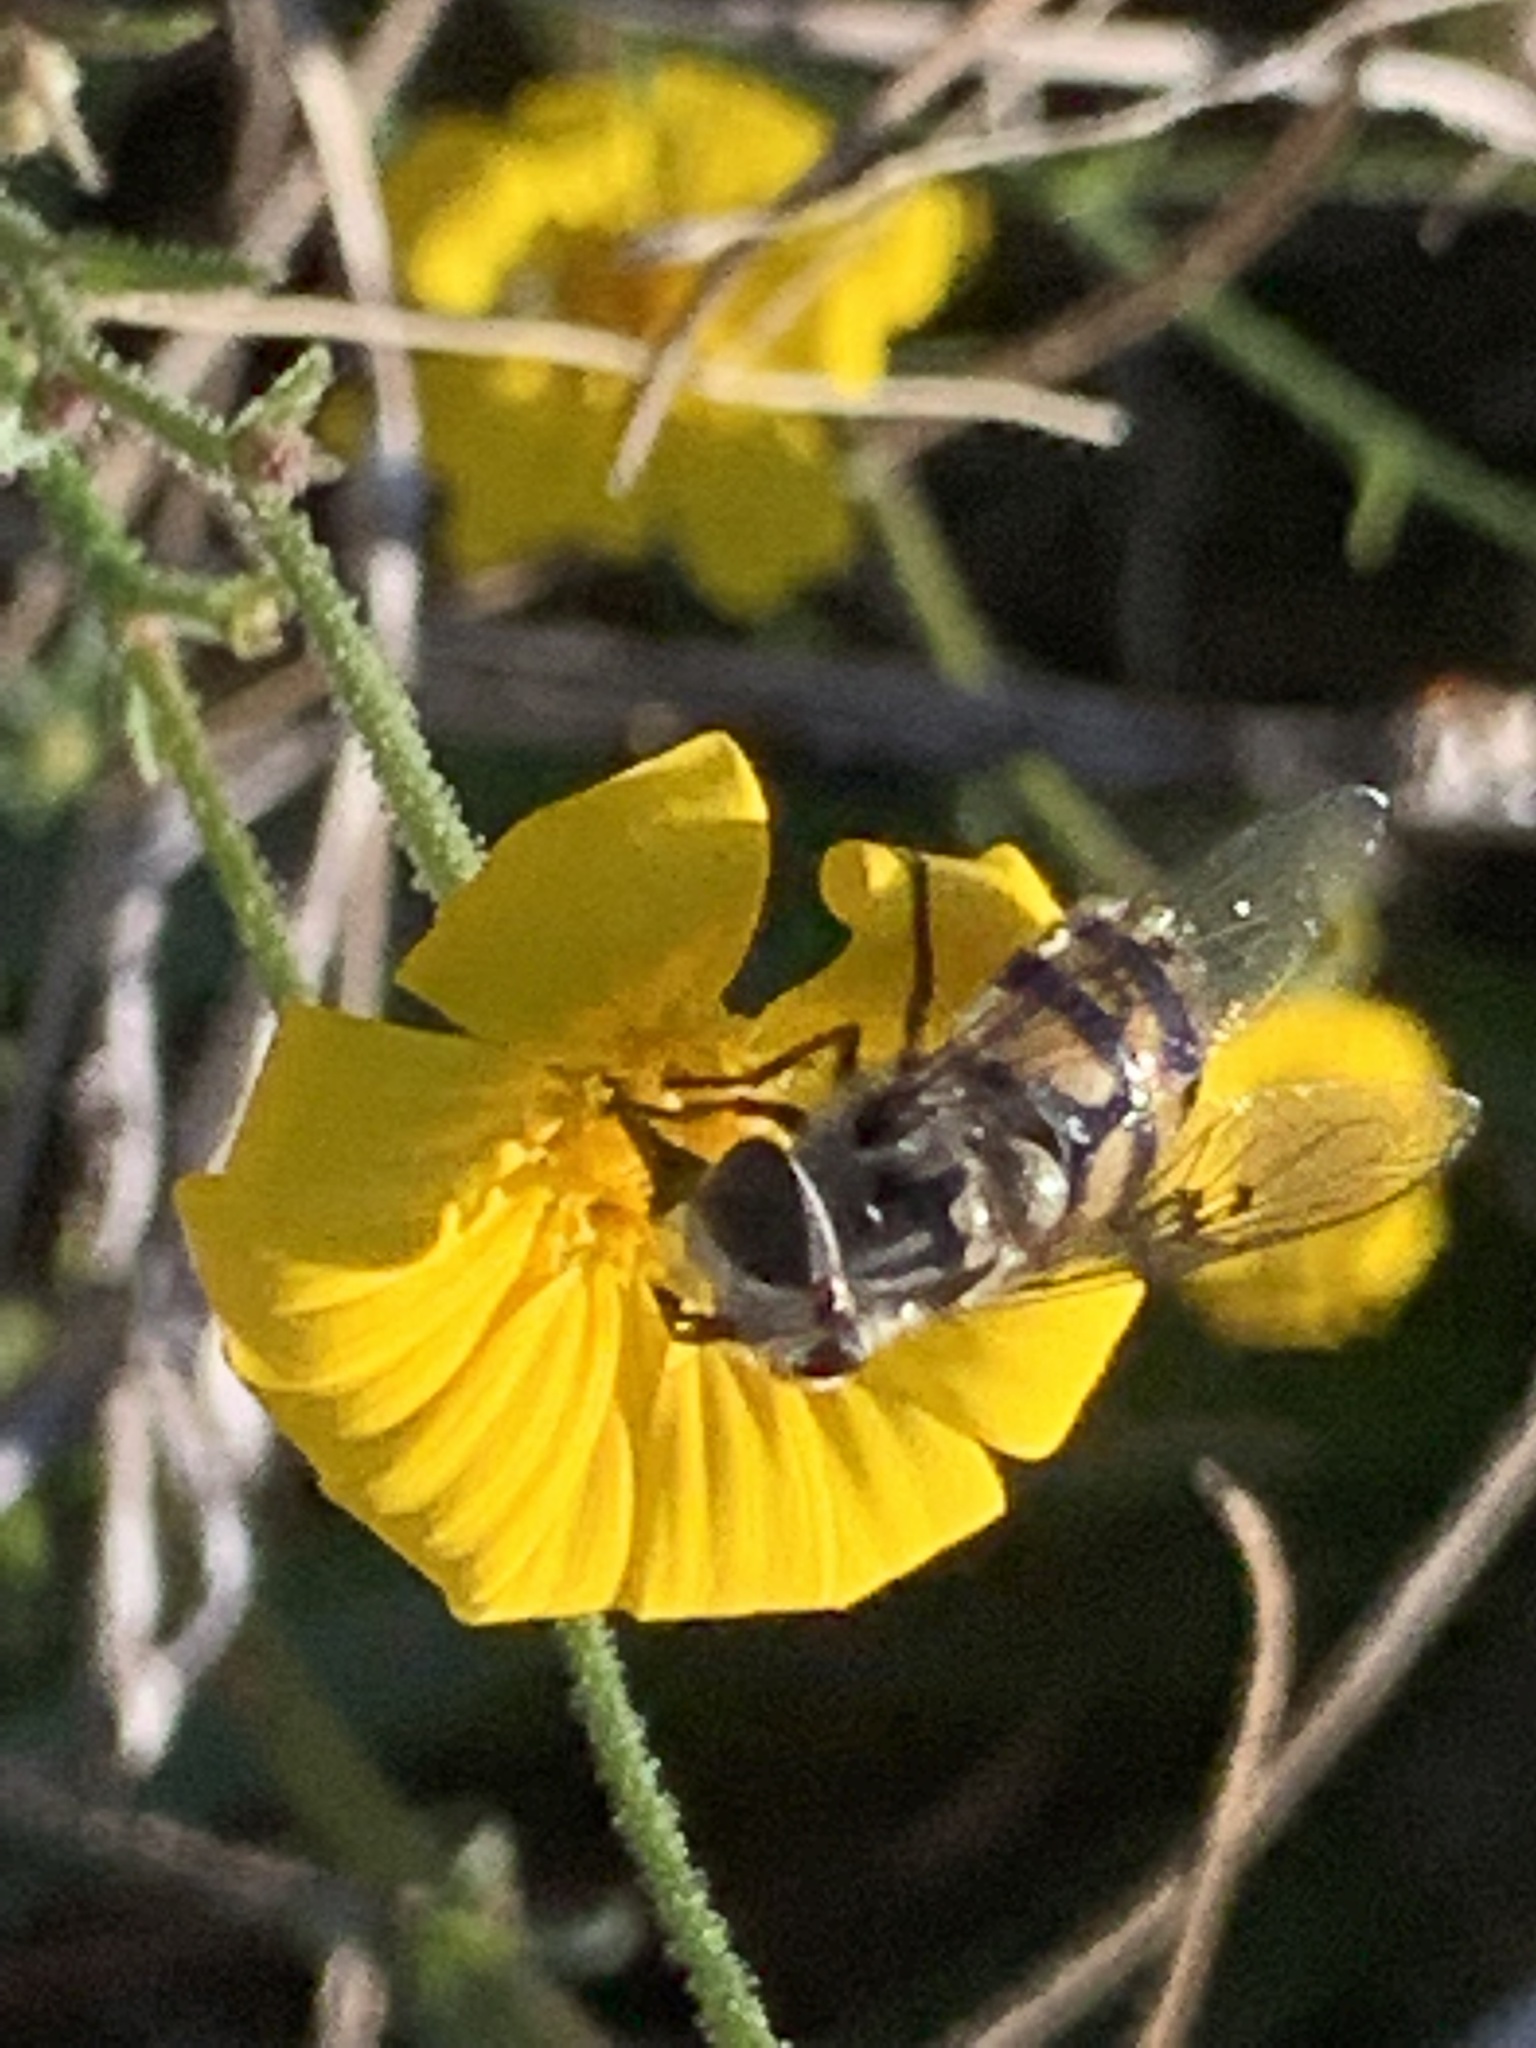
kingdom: Animalia
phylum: Arthropoda
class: Insecta
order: Diptera
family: Syrphidae
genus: Copestylum
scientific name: Copestylum avidum
